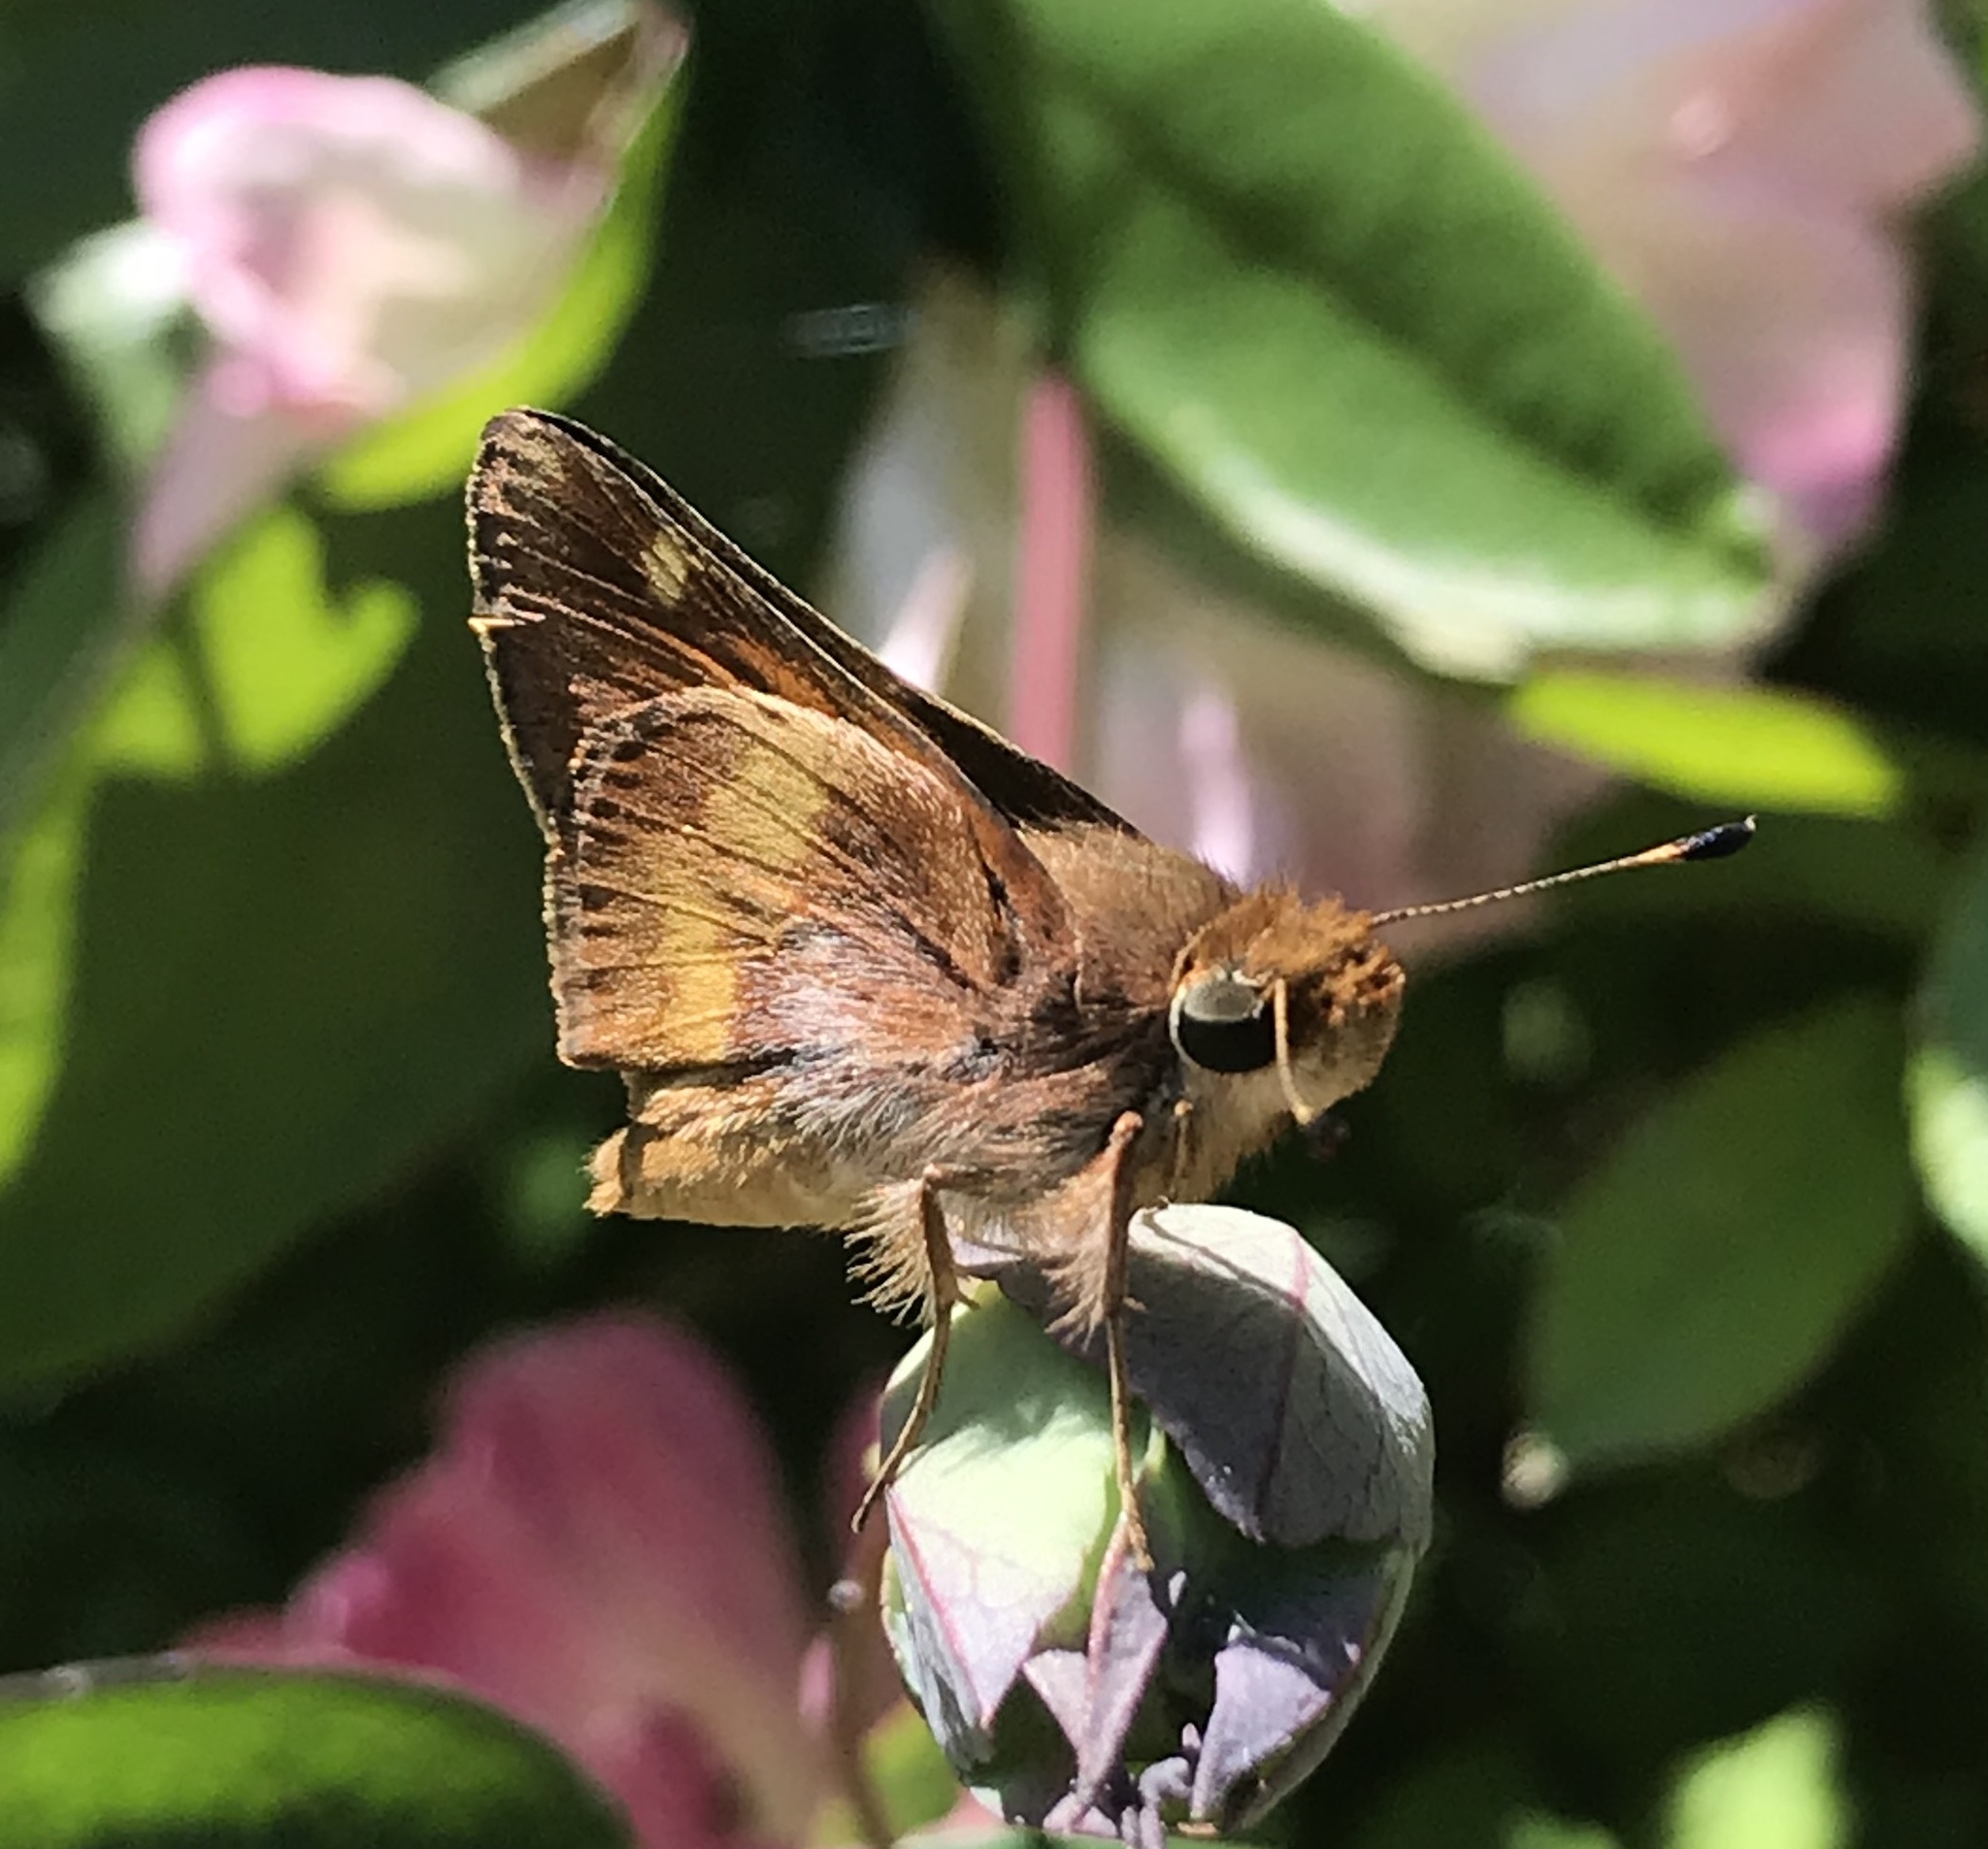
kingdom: Animalia
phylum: Arthropoda
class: Insecta
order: Lepidoptera
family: Hesperiidae
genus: Lon
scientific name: Lon melane
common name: Umber skipper
